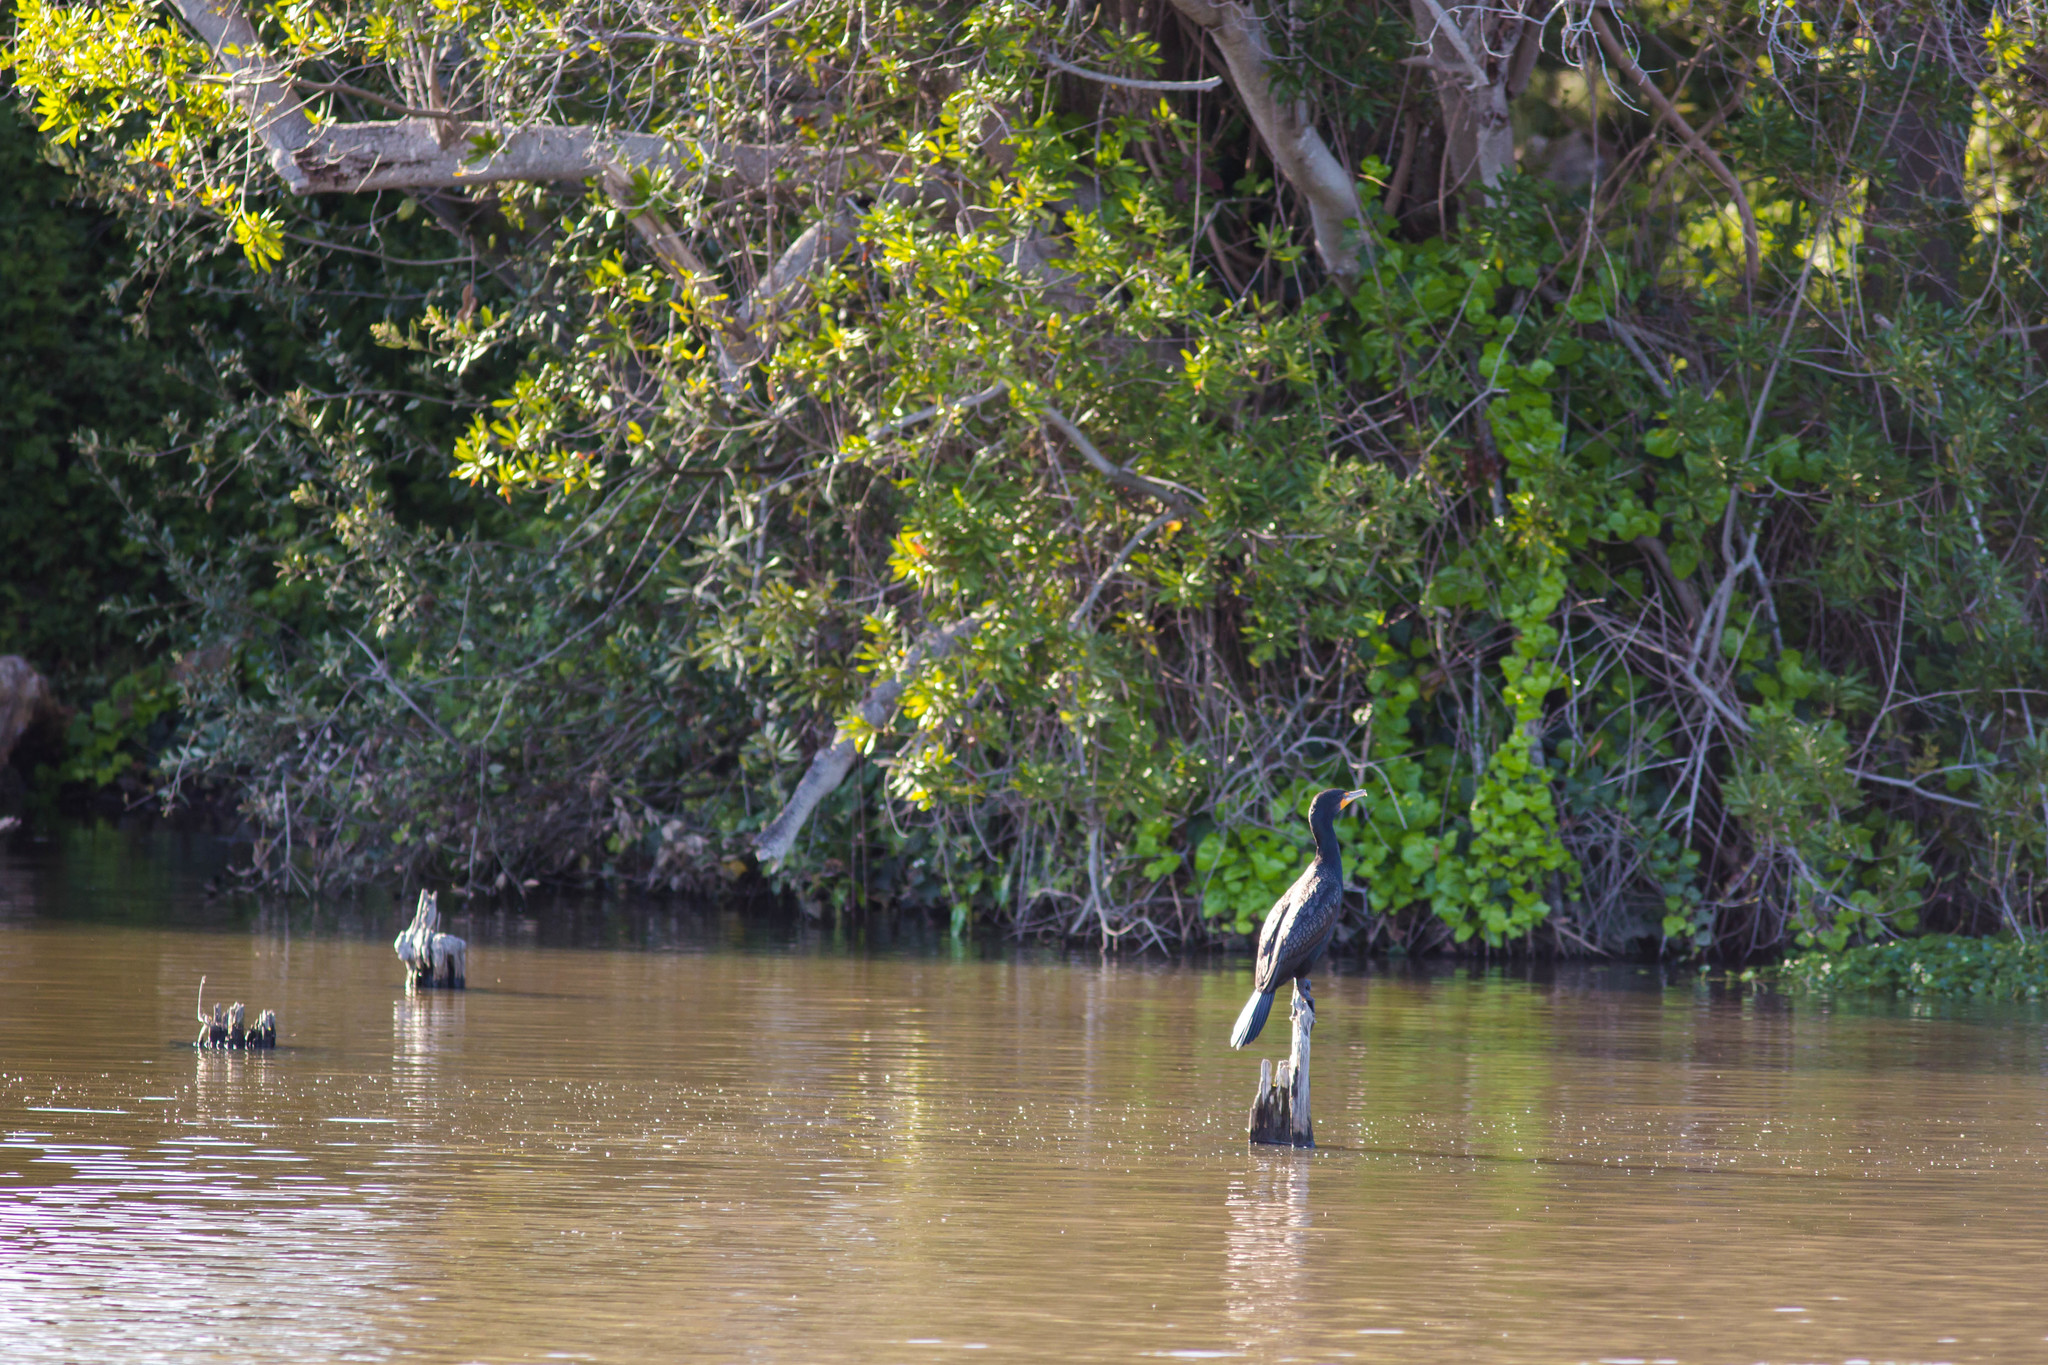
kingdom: Animalia
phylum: Chordata
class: Aves
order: Suliformes
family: Phalacrocoracidae
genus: Phalacrocorax
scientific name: Phalacrocorax auritus
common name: Double-crested cormorant
